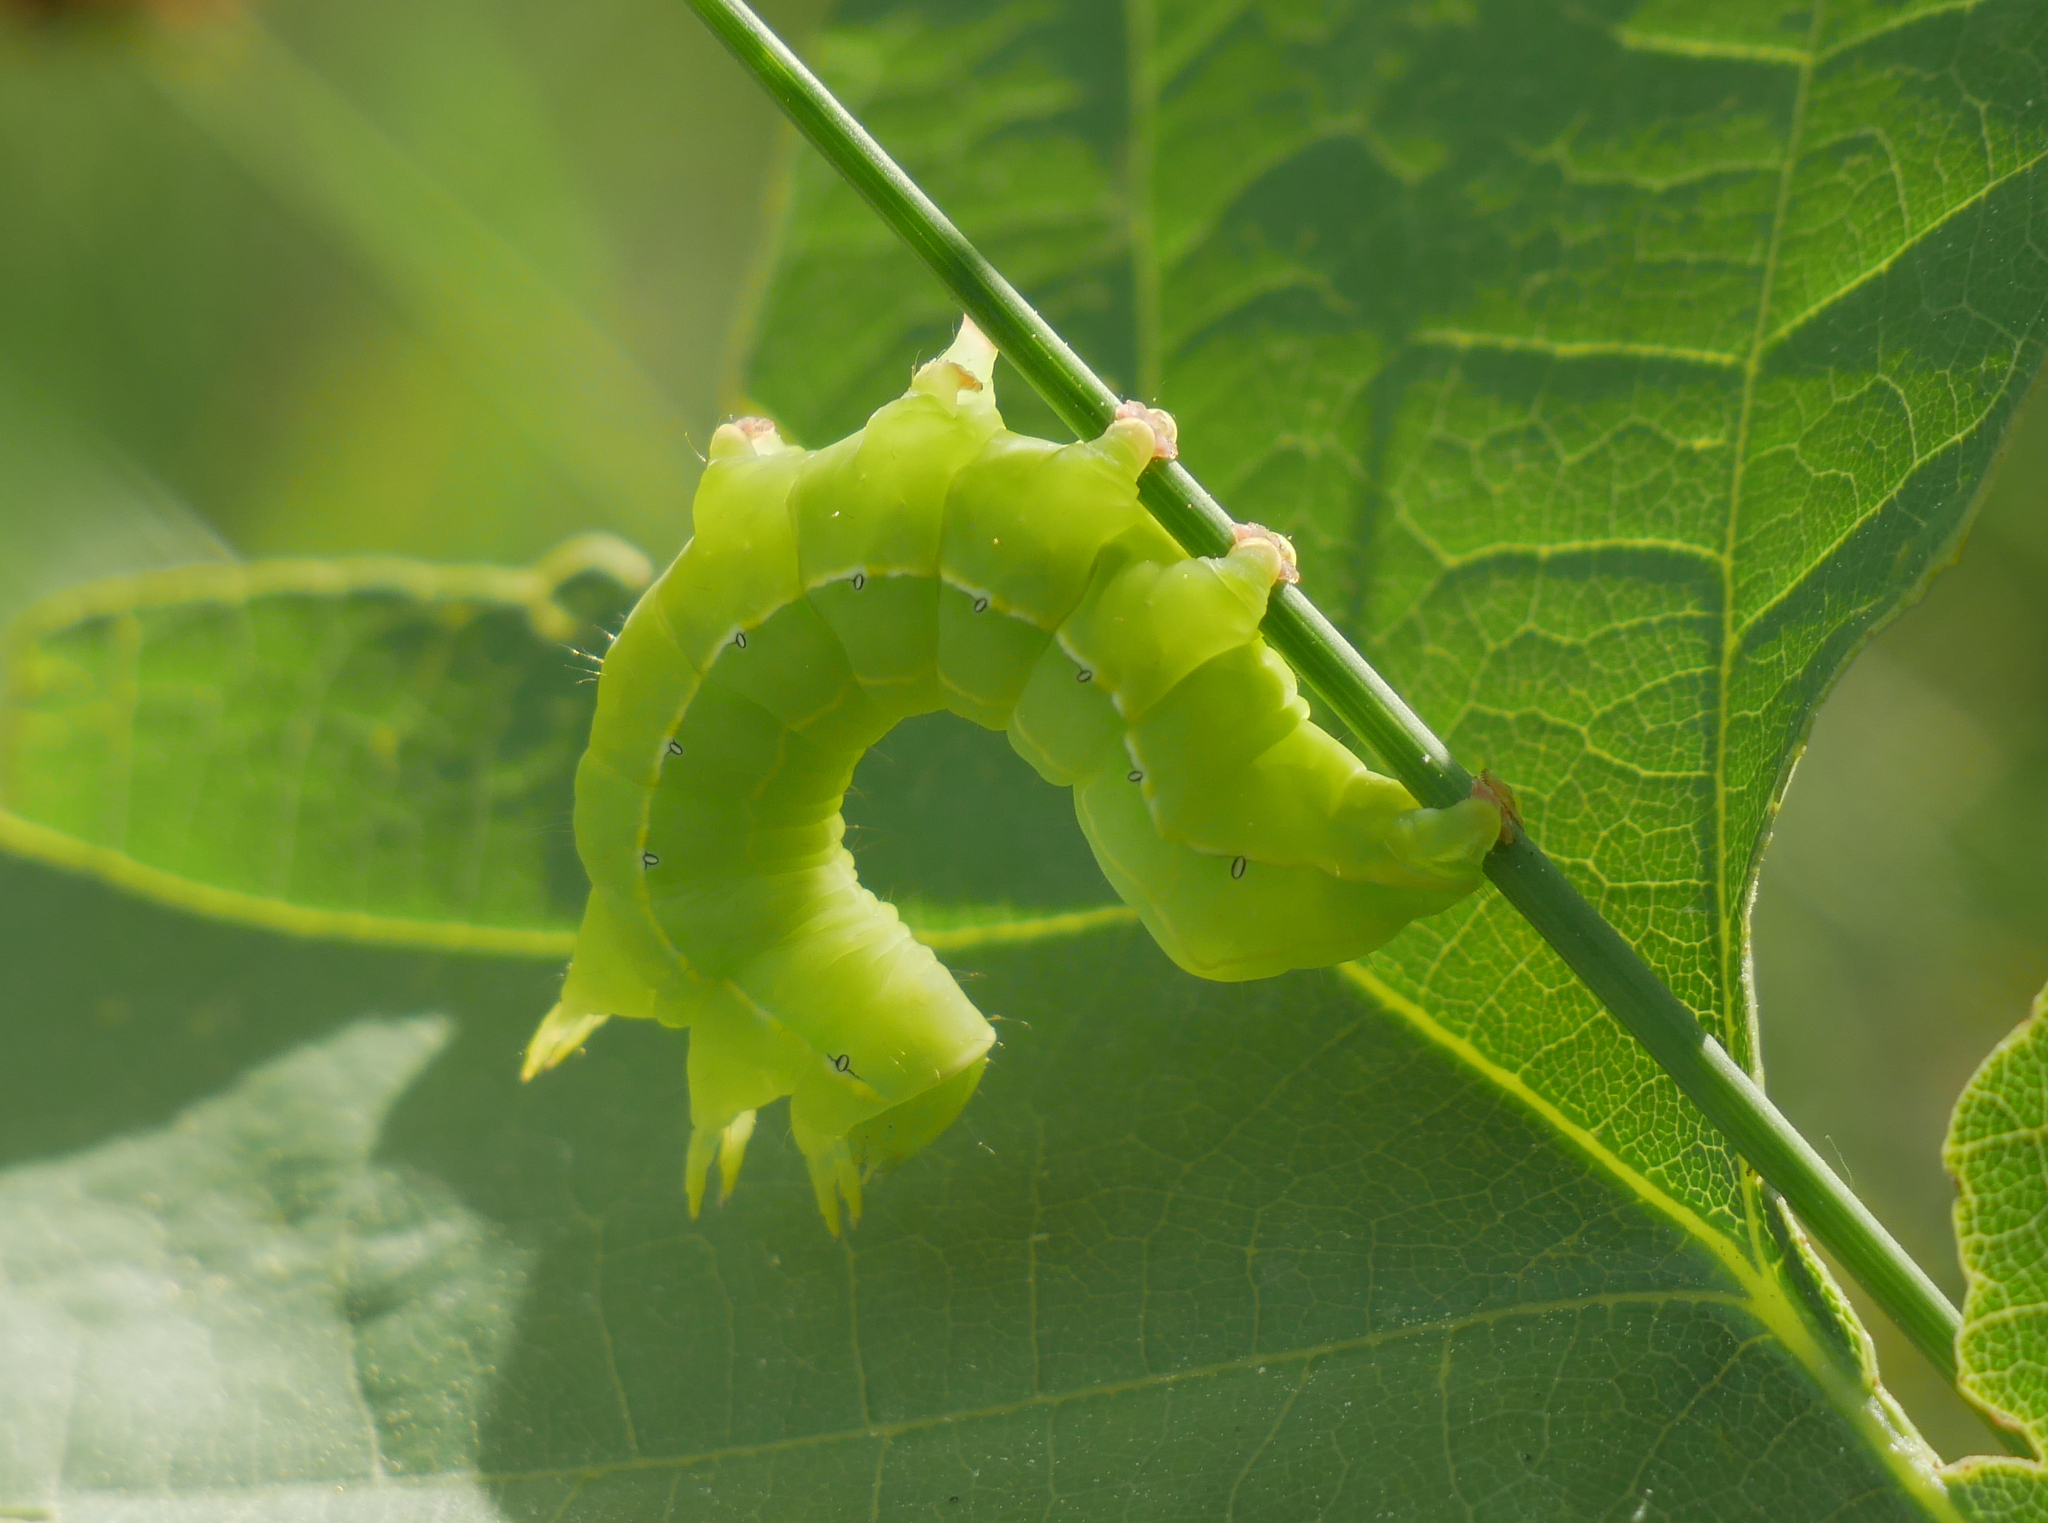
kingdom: Animalia
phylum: Arthropoda
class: Insecta
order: Lepidoptera
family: Noctuidae
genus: Asteroscopus
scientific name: Asteroscopus sphinx
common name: The sprawler
